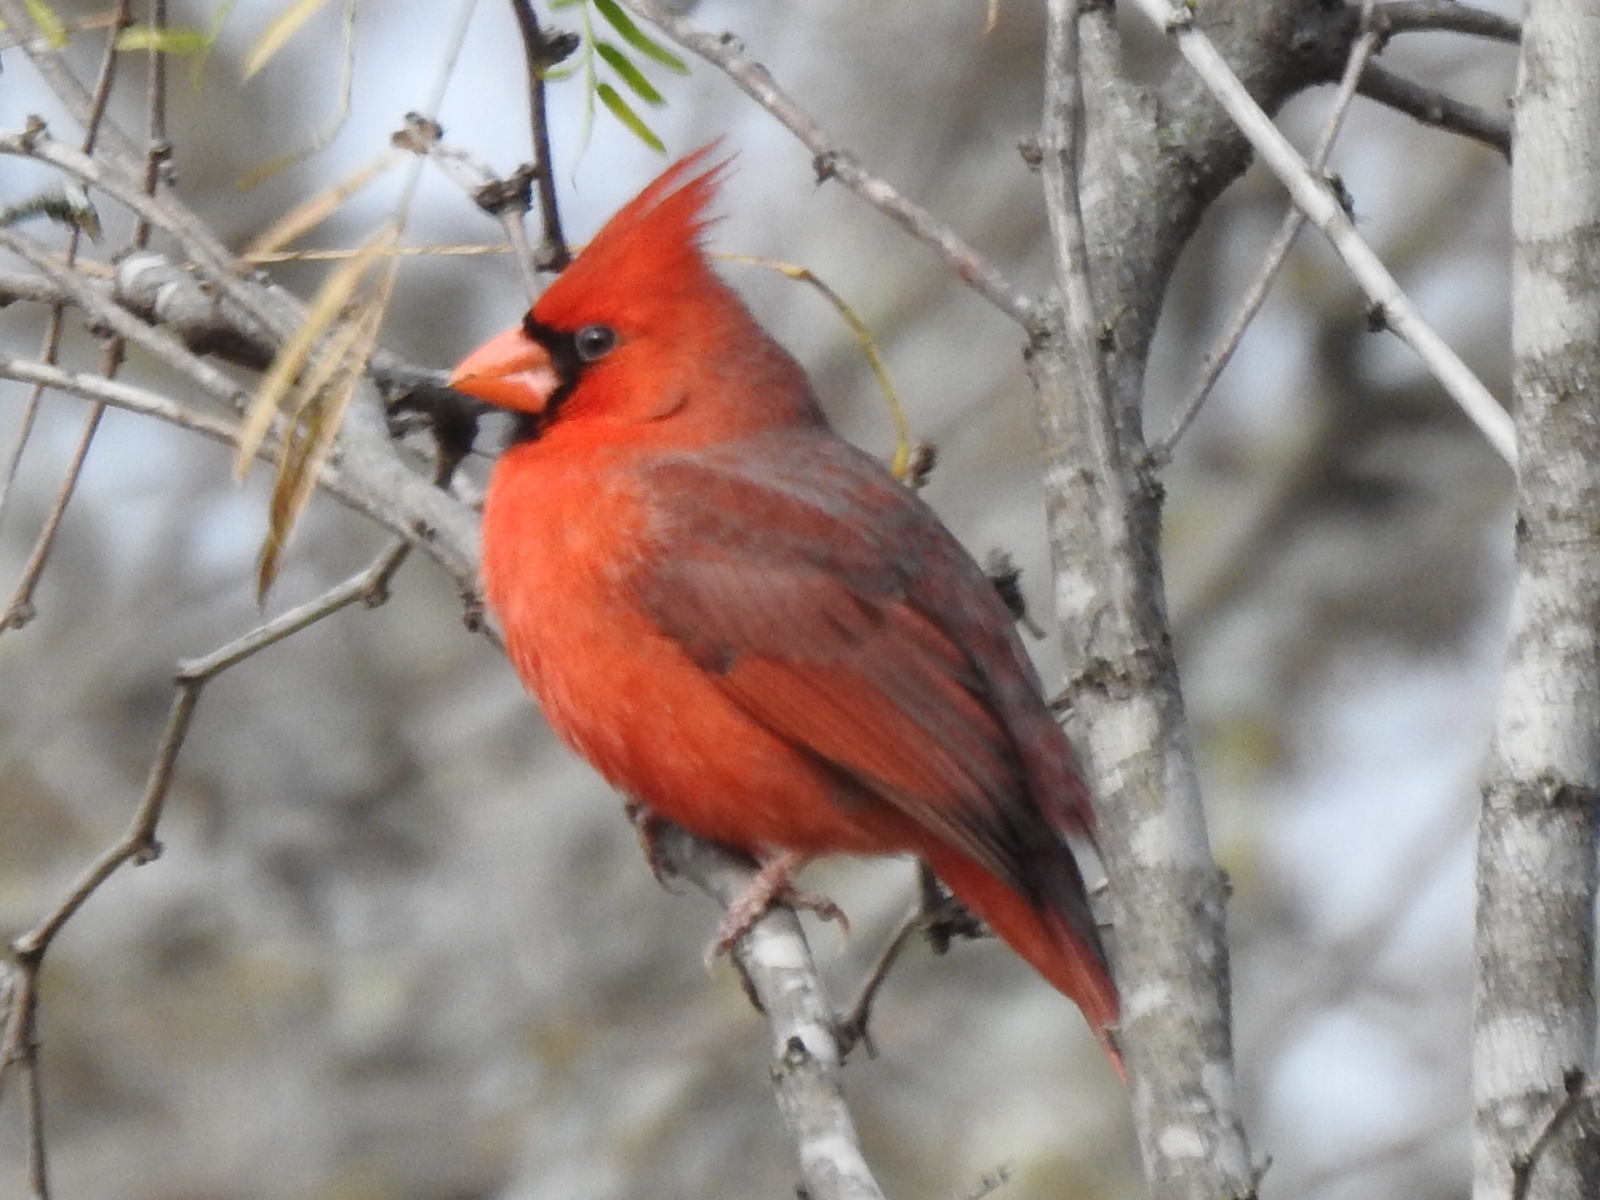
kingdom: Animalia
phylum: Chordata
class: Aves
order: Passeriformes
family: Cardinalidae
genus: Cardinalis
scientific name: Cardinalis cardinalis
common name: Northern cardinal
